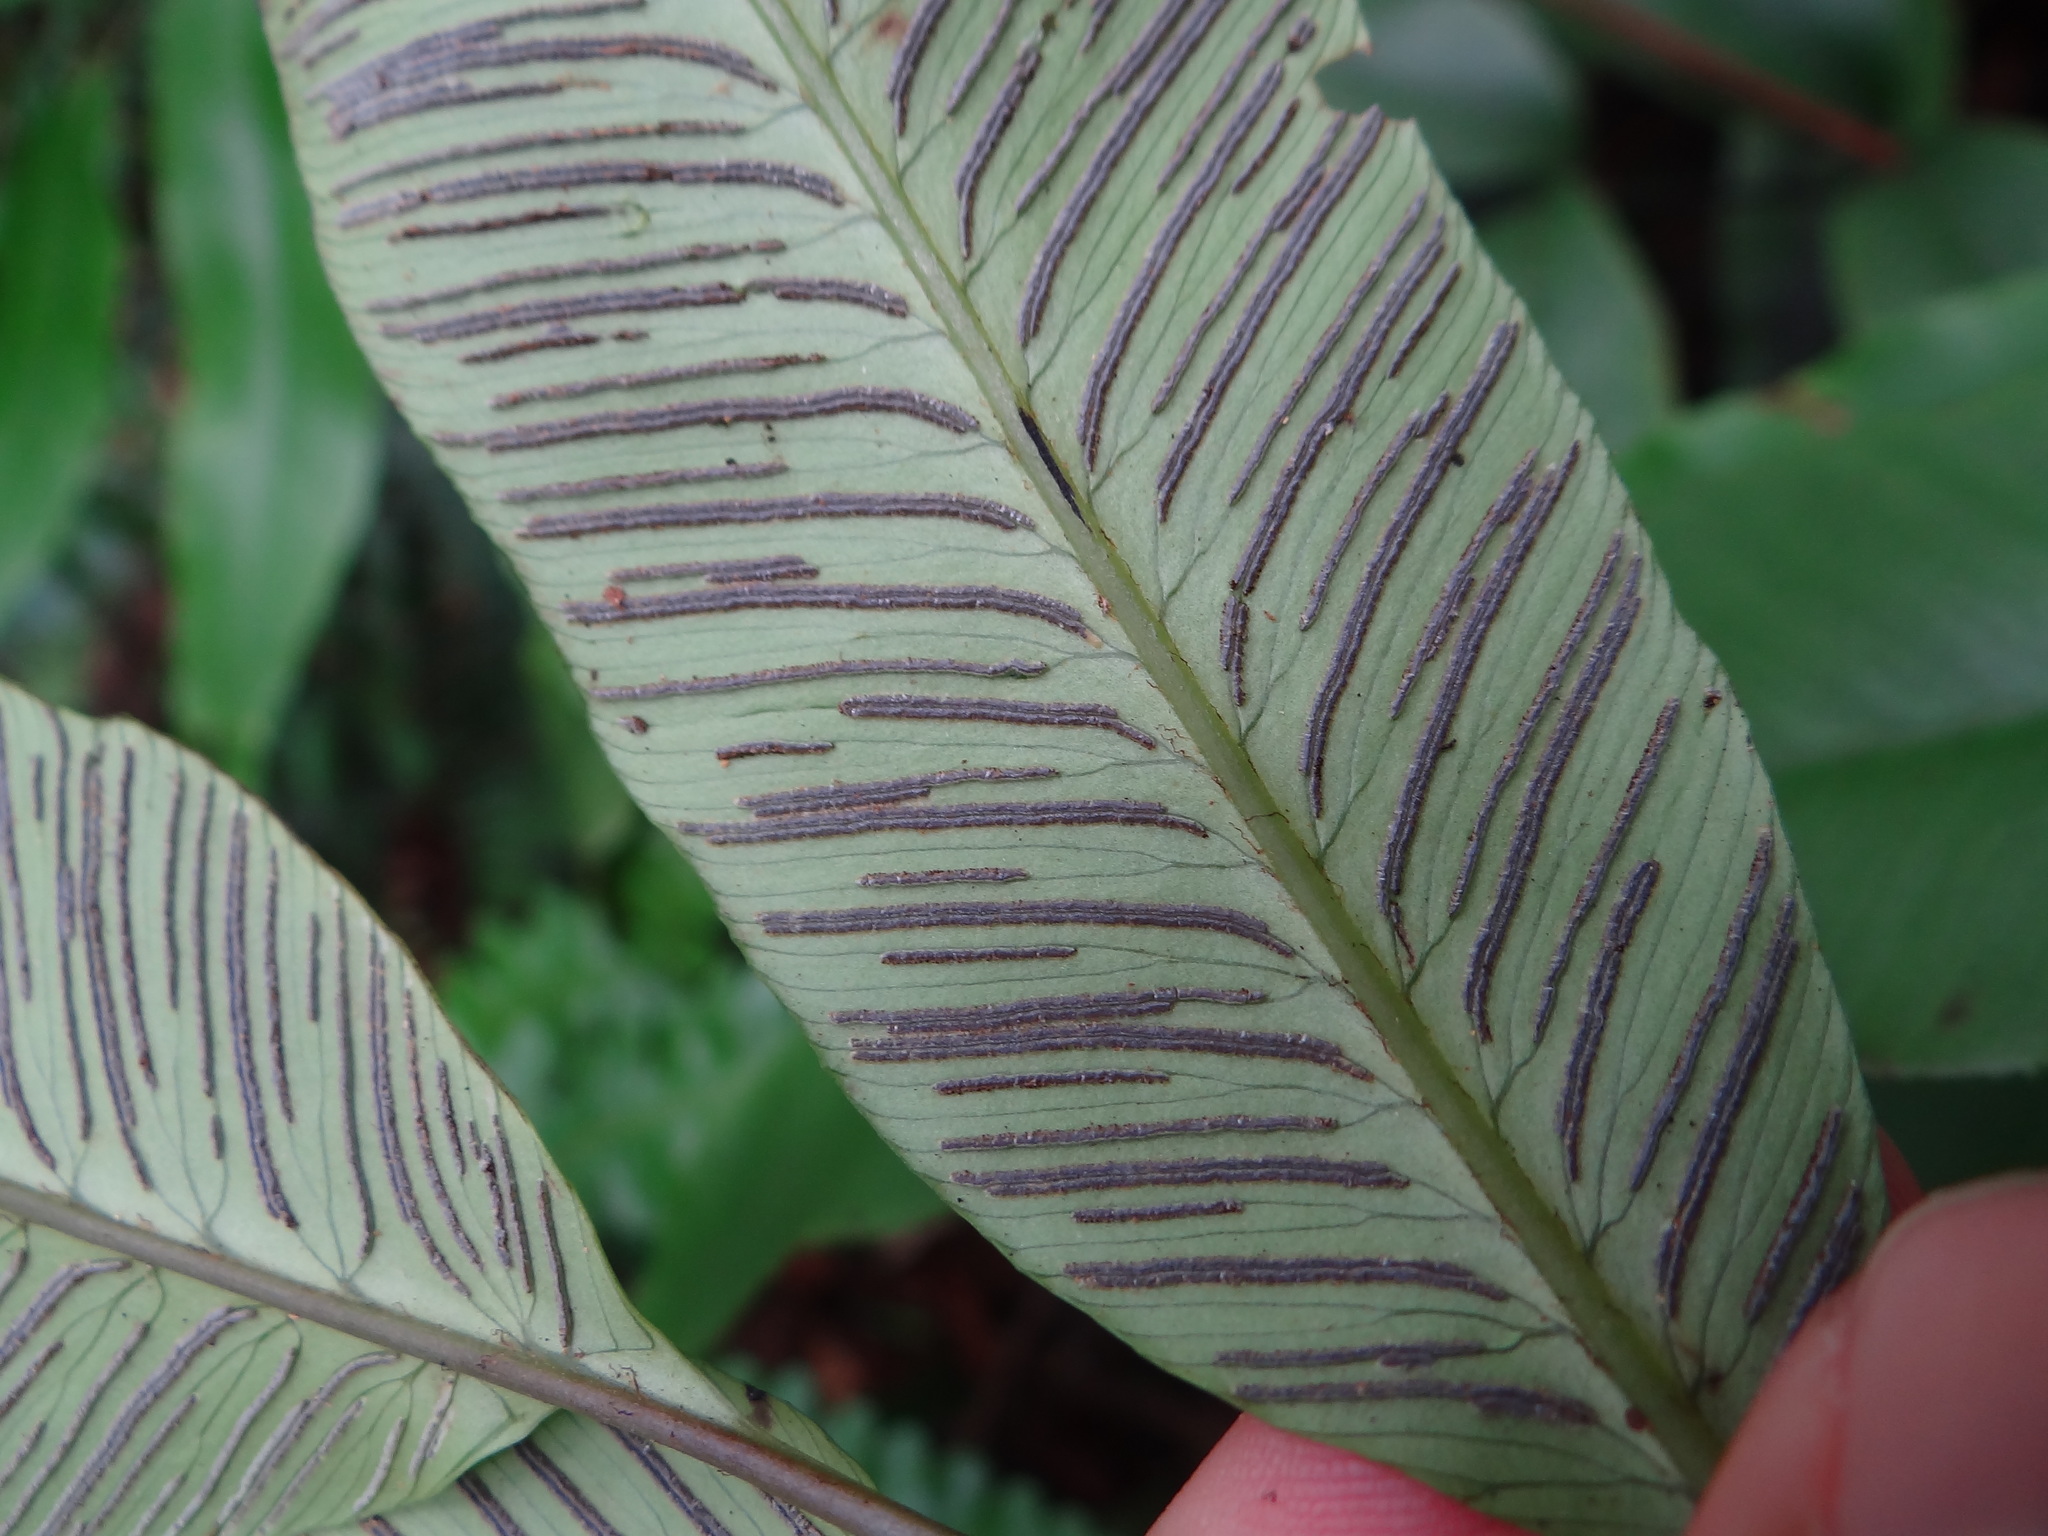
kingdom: Plantae
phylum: Tracheophyta
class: Polypodiopsida
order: Polypodiales
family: Athyriaceae
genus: Diplazium
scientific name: Diplazium lineolatum
